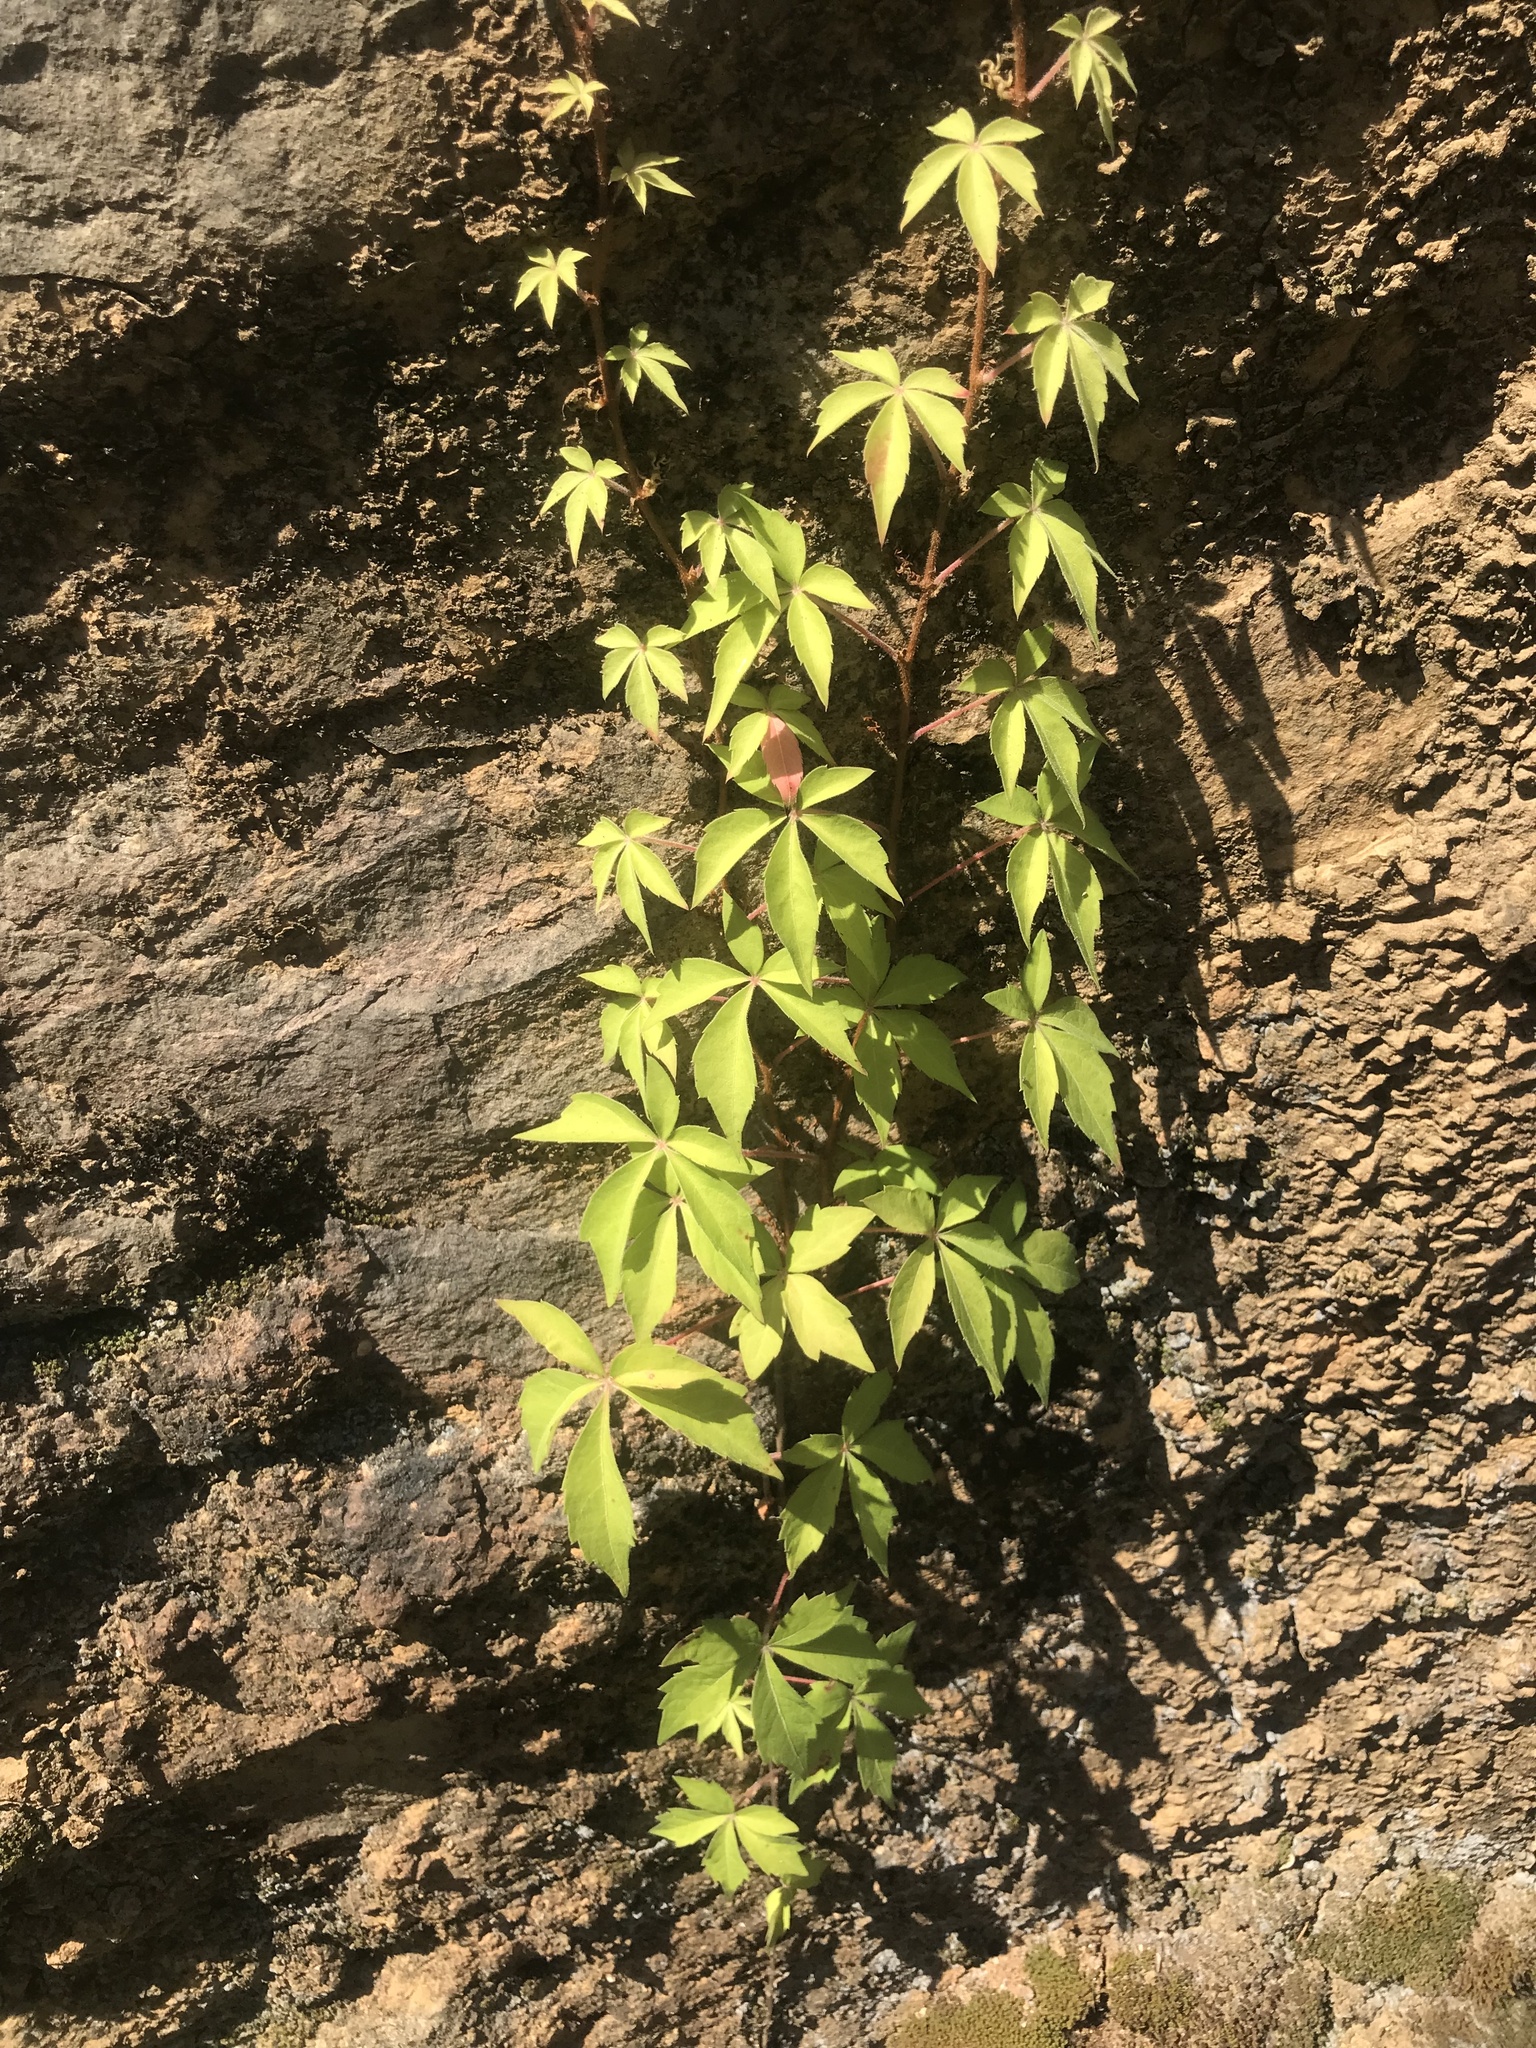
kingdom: Plantae
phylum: Tracheophyta
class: Magnoliopsida
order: Vitales
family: Vitaceae
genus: Parthenocissus
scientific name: Parthenocissus quinquefolia
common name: Virginia-creeper
